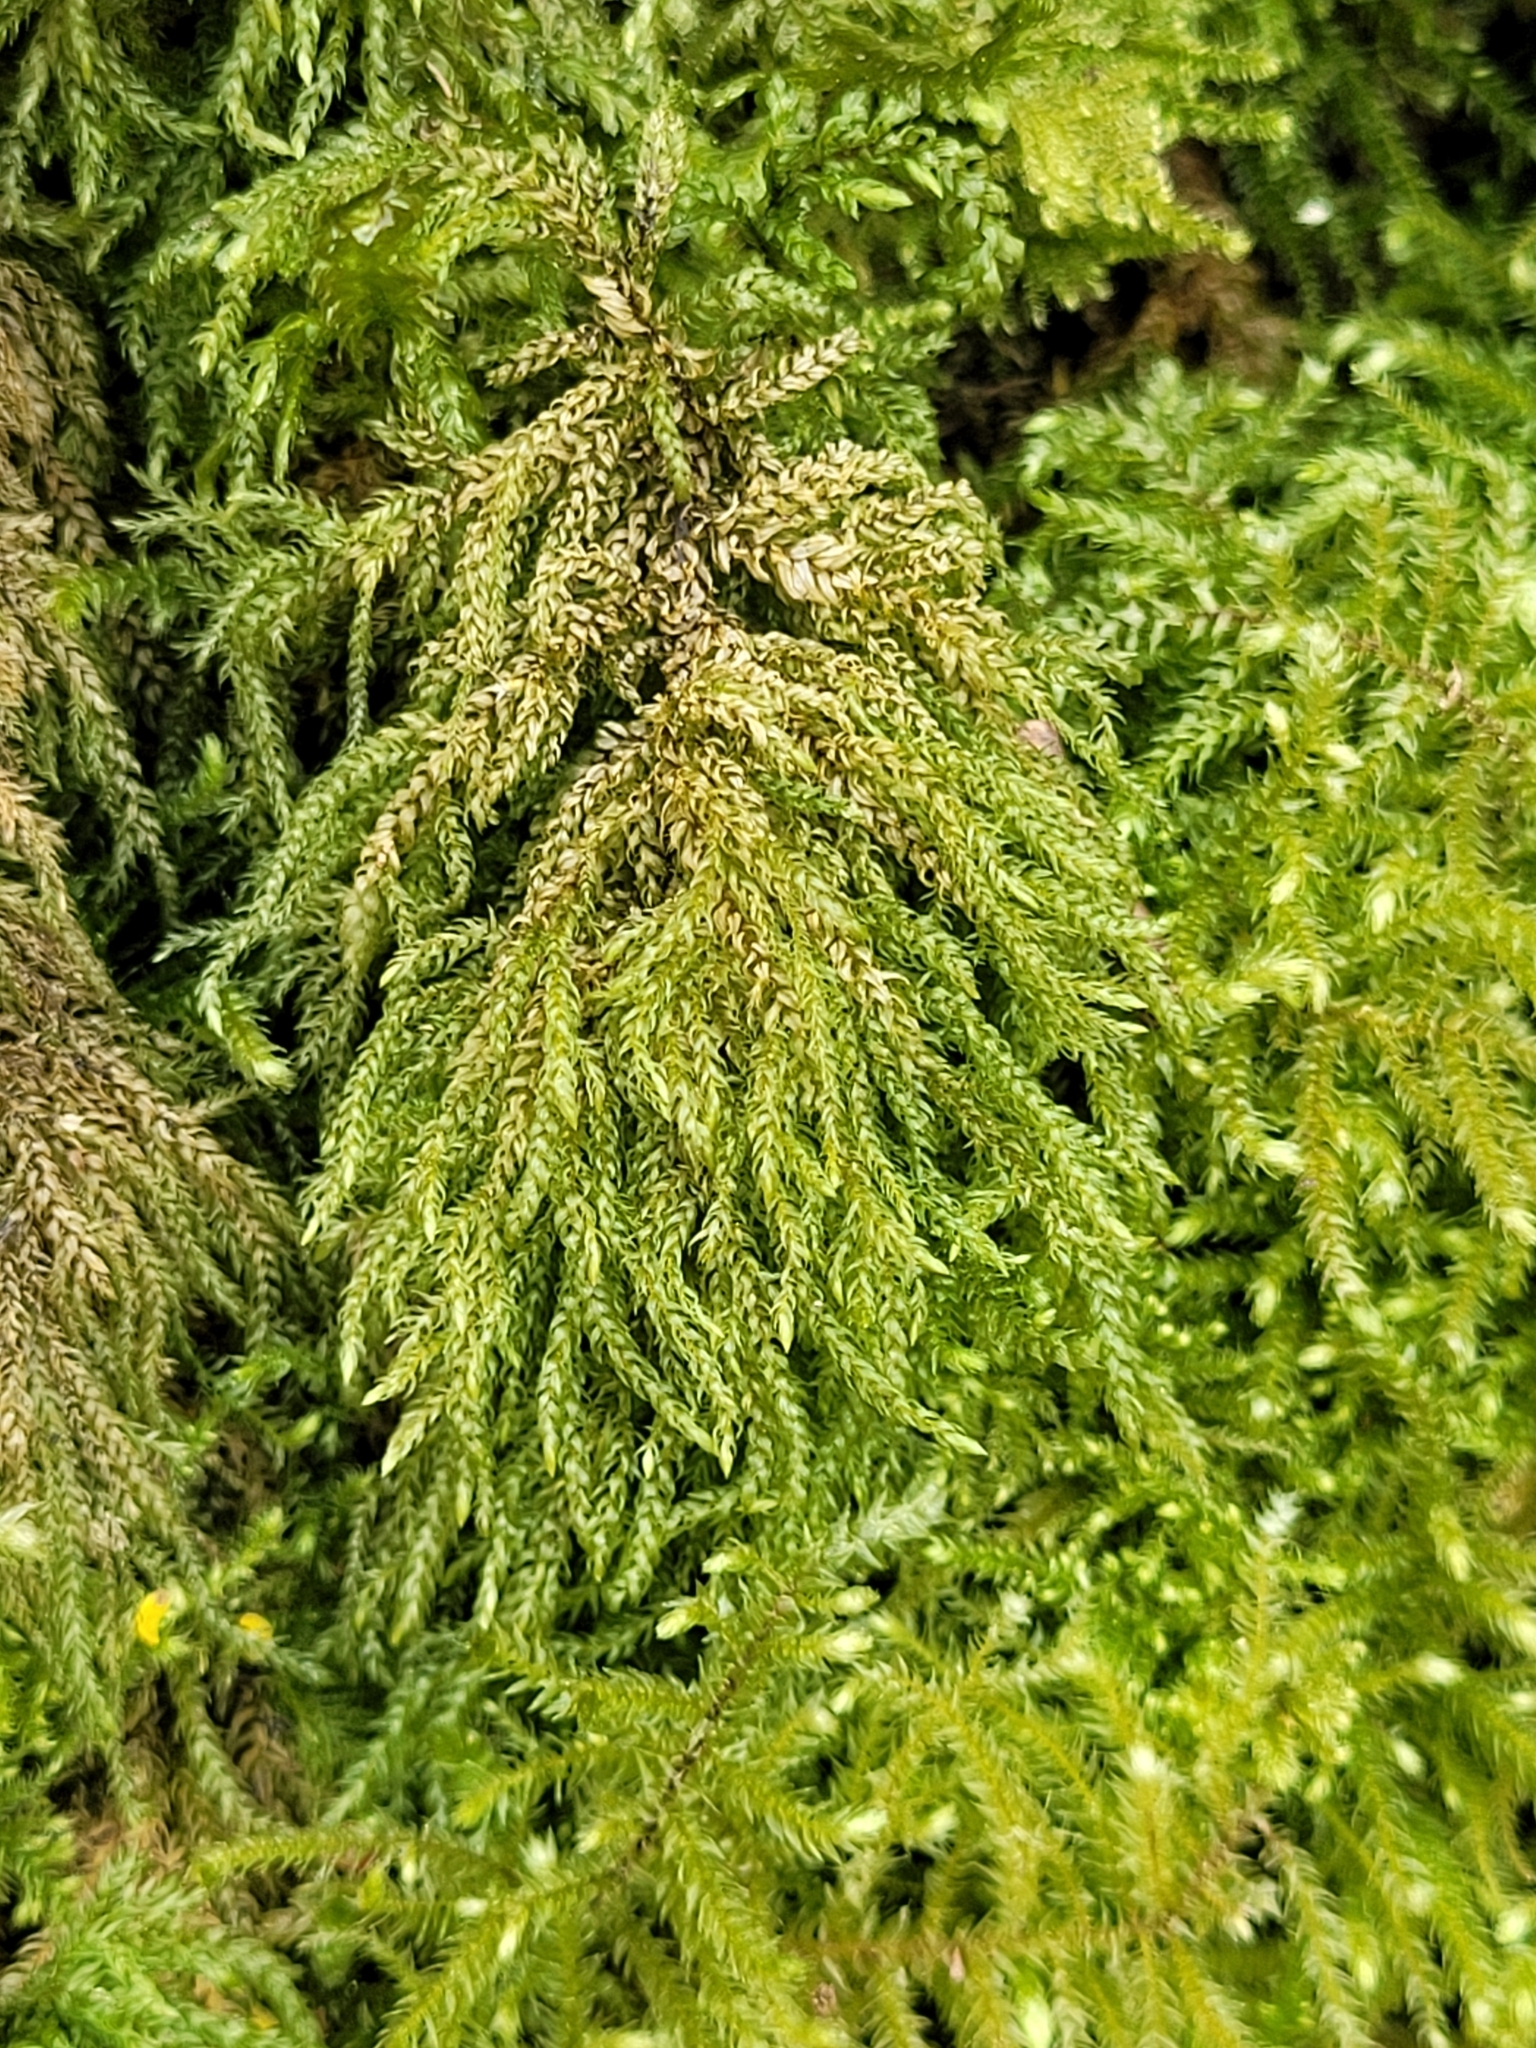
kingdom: Plantae
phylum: Bryophyta
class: Bryopsida
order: Hypnales
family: Neckeraceae
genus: Thamnobryum
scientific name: Thamnobryum alopecurum
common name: Fox-tail feather-moss
